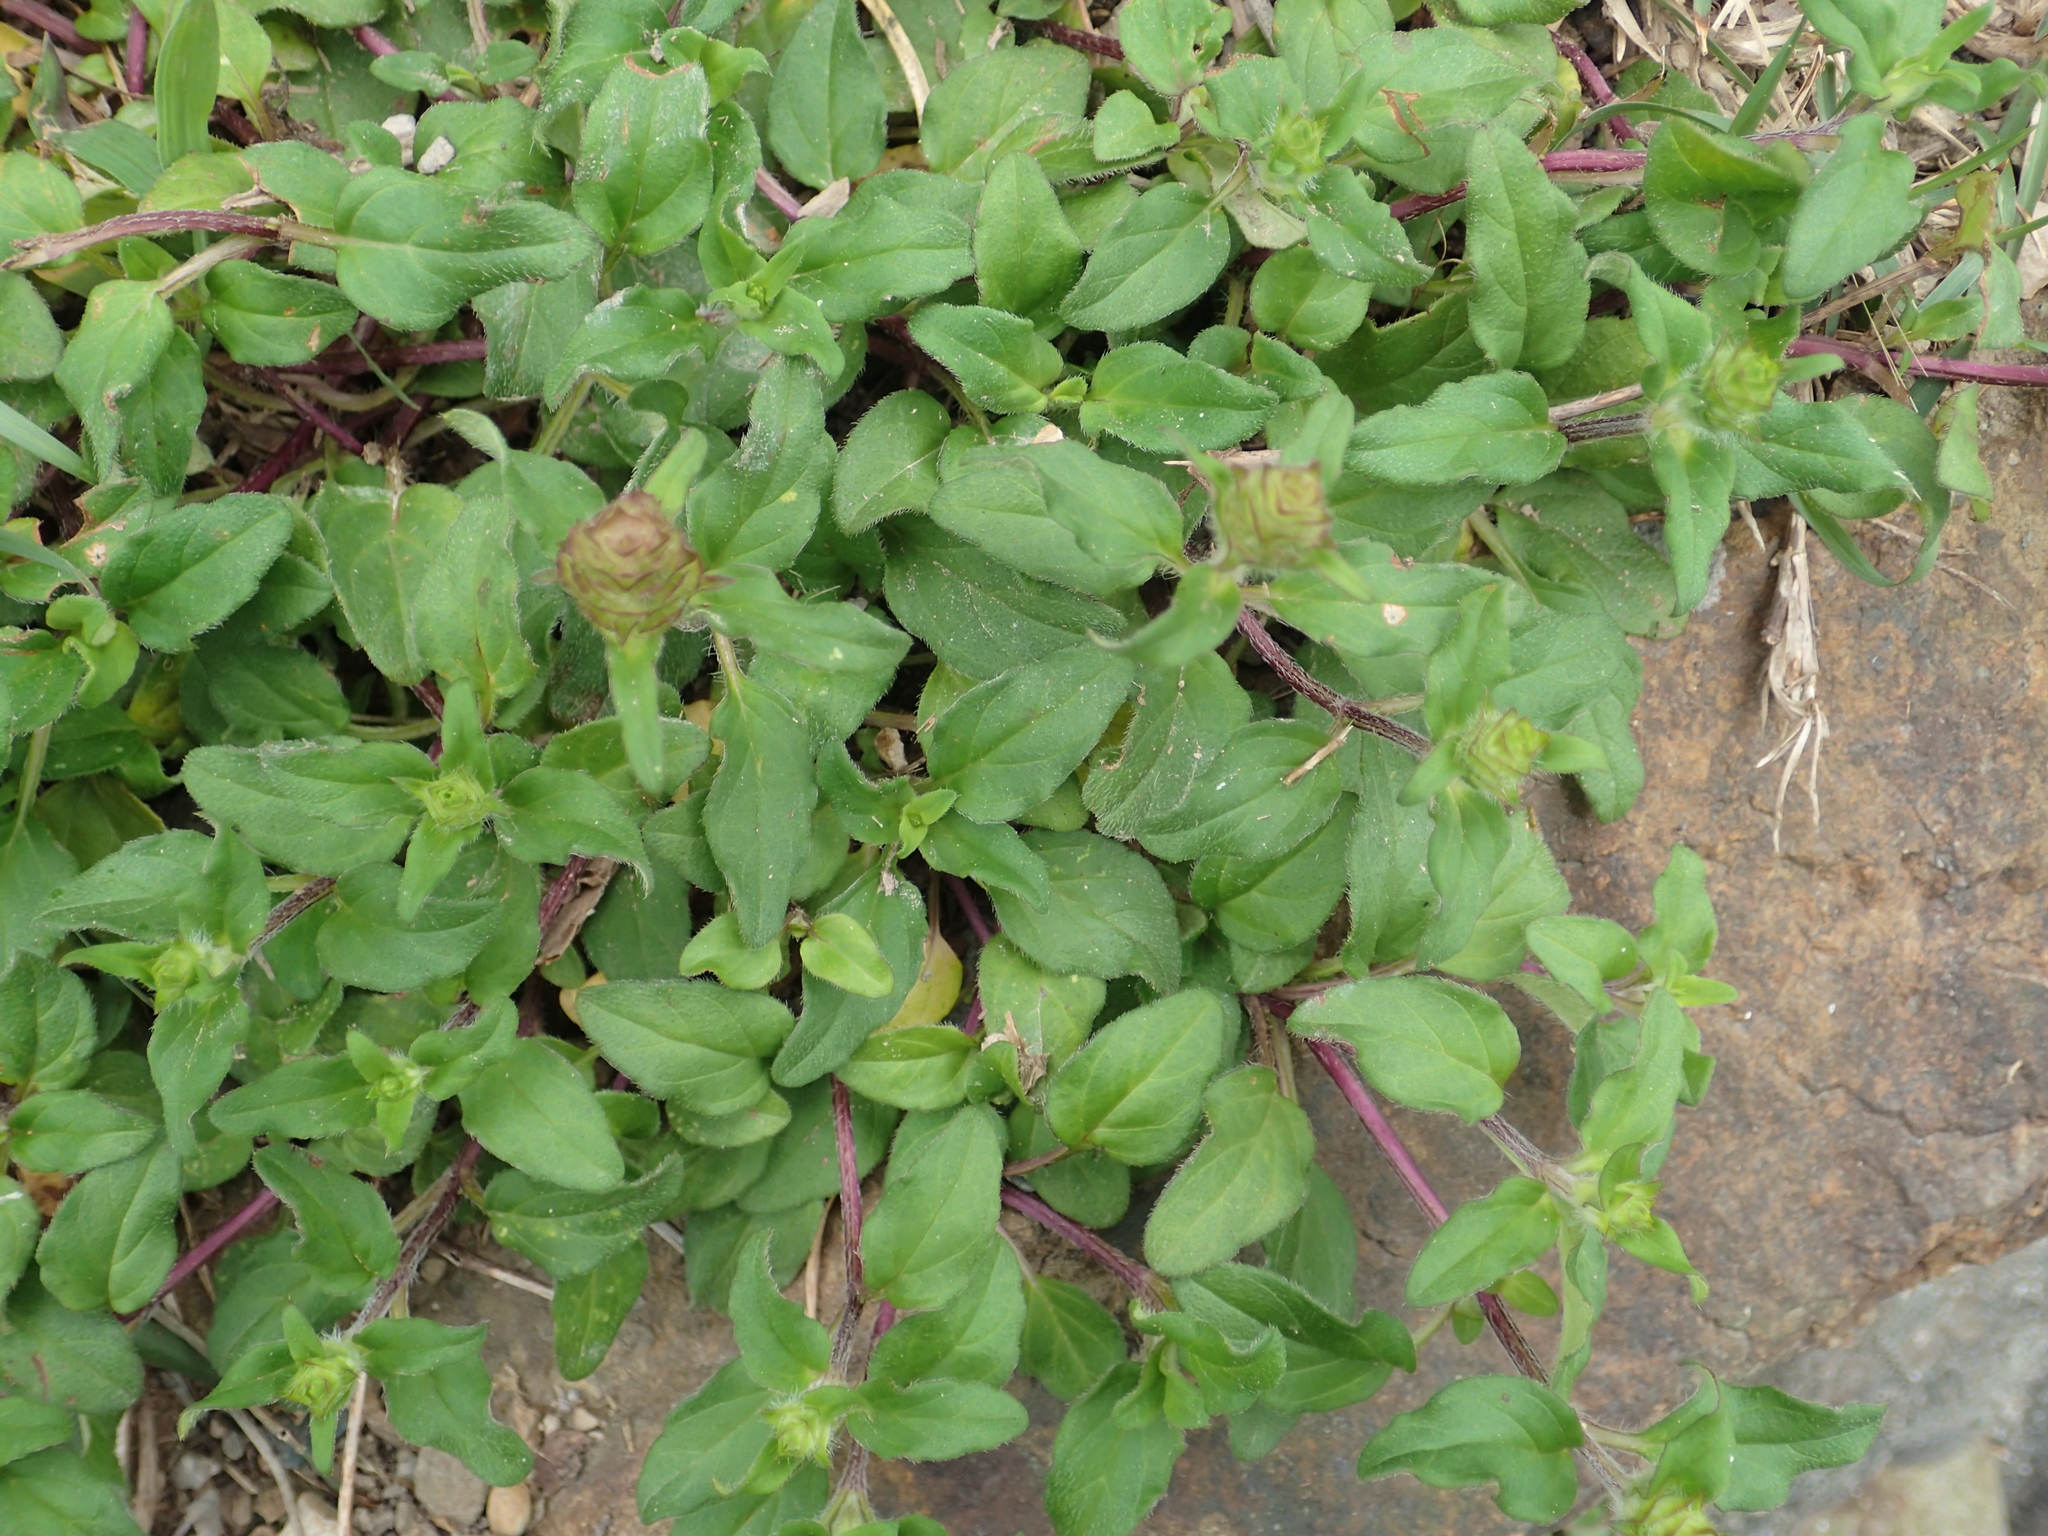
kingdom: Plantae
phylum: Tracheophyta
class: Magnoliopsida
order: Lamiales
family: Lamiaceae
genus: Prunella
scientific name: Prunella vulgaris
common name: Heal-all
